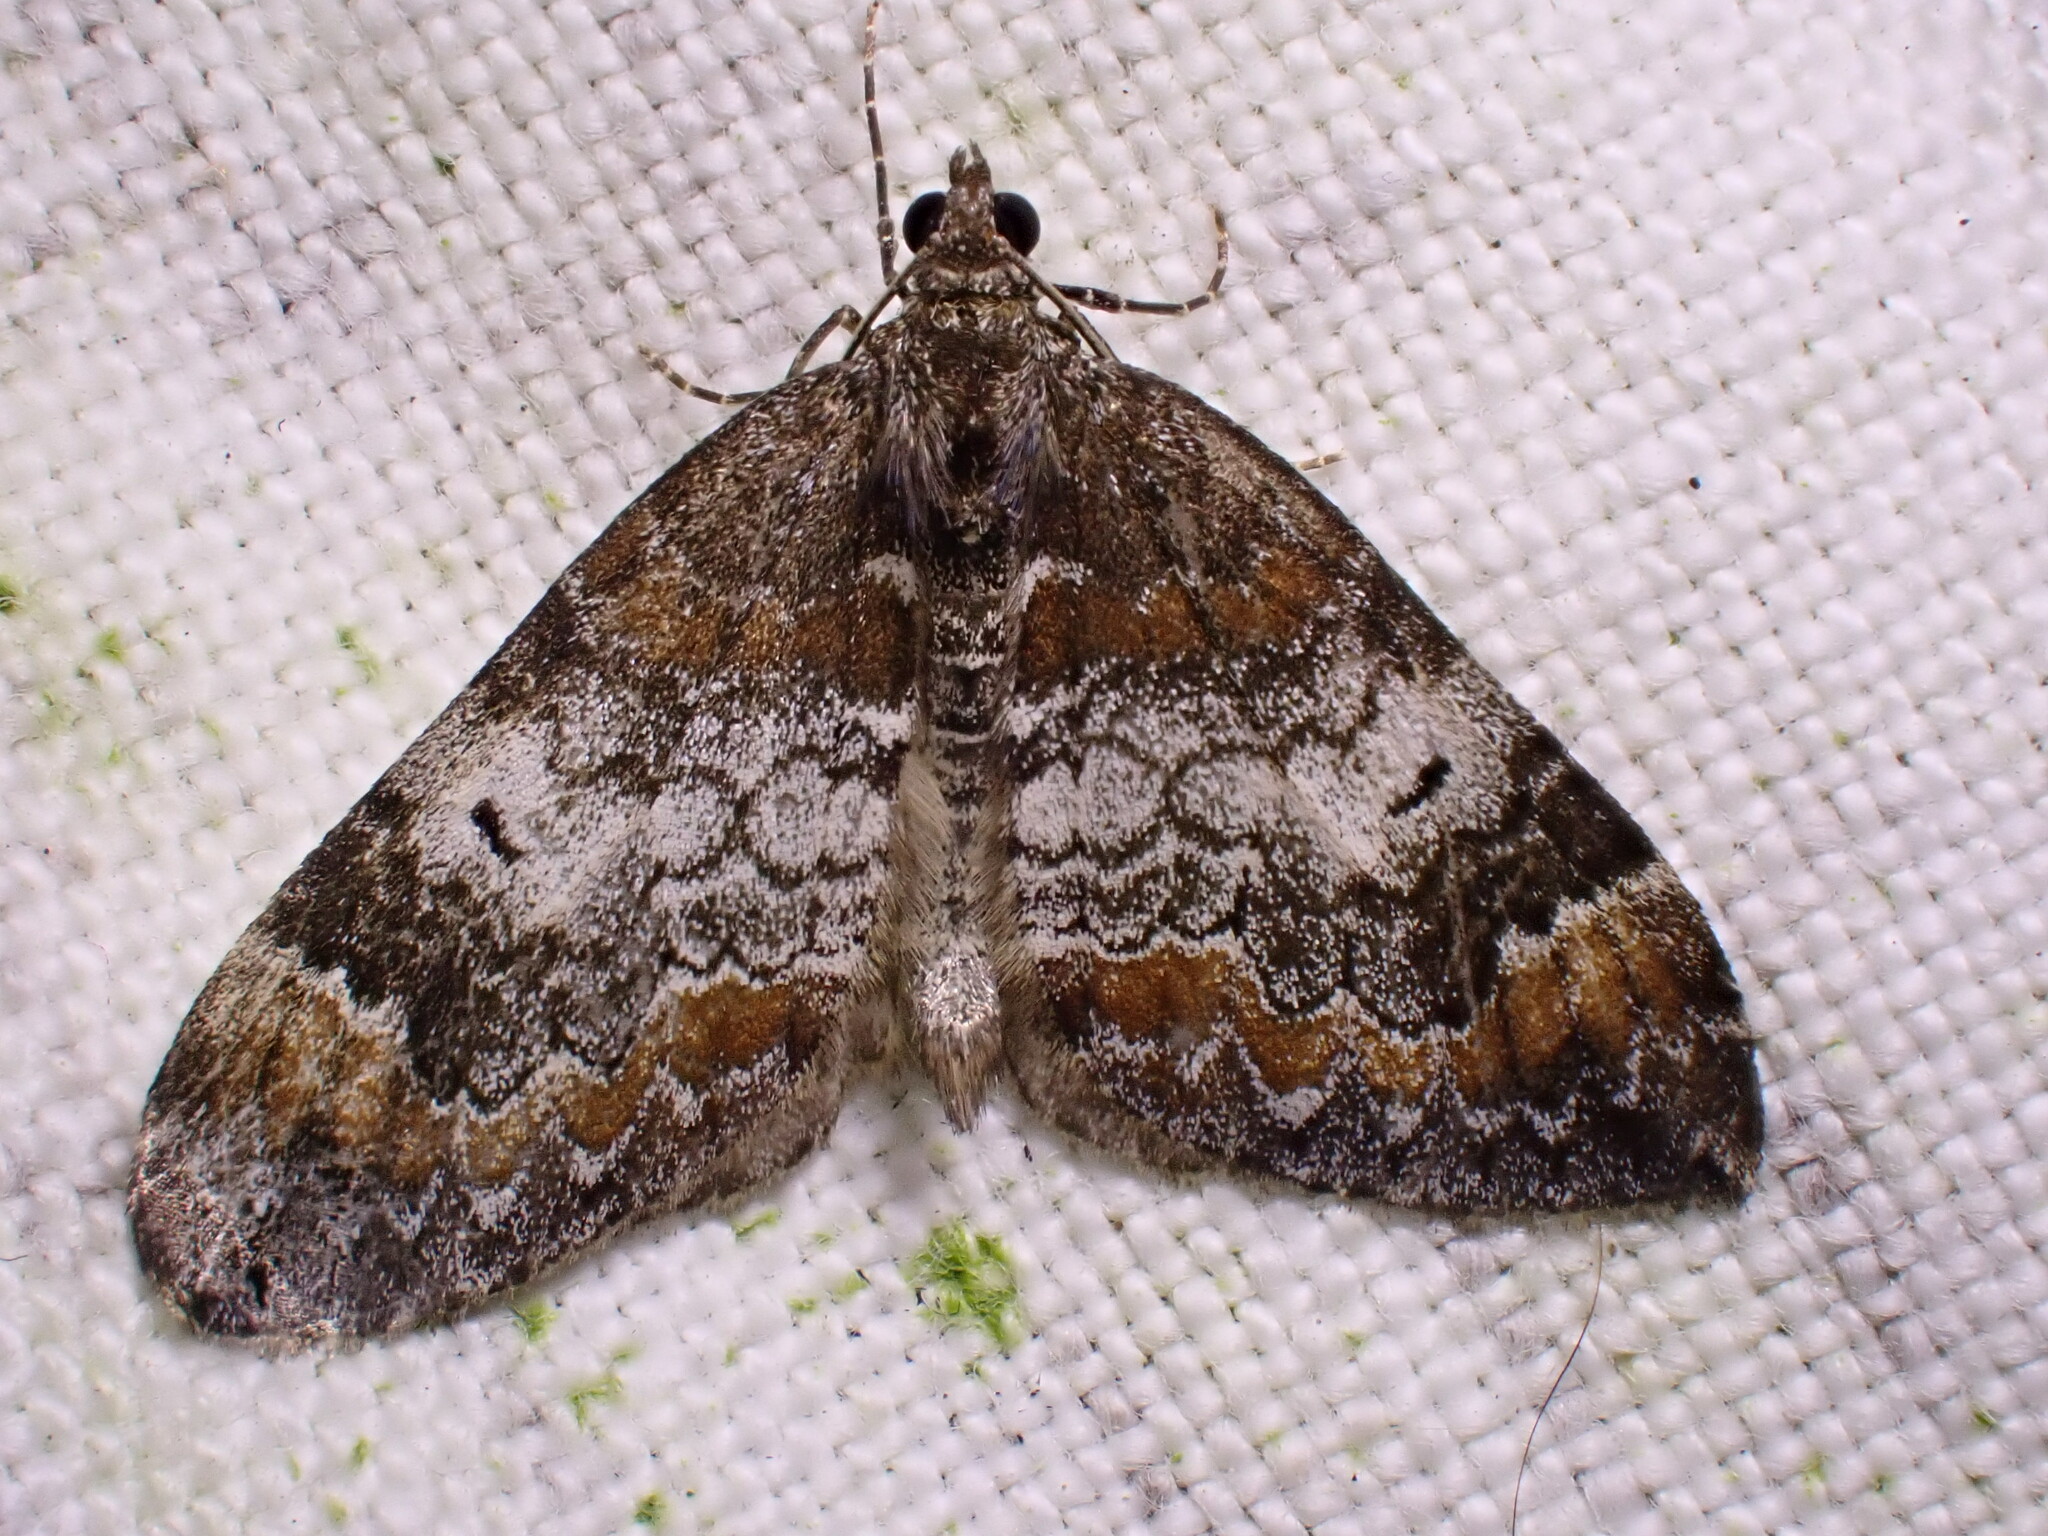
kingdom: Animalia
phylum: Arthropoda
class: Insecta
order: Lepidoptera
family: Geometridae
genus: Dysstroma
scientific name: Dysstroma truncata
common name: Common marbled carpet
